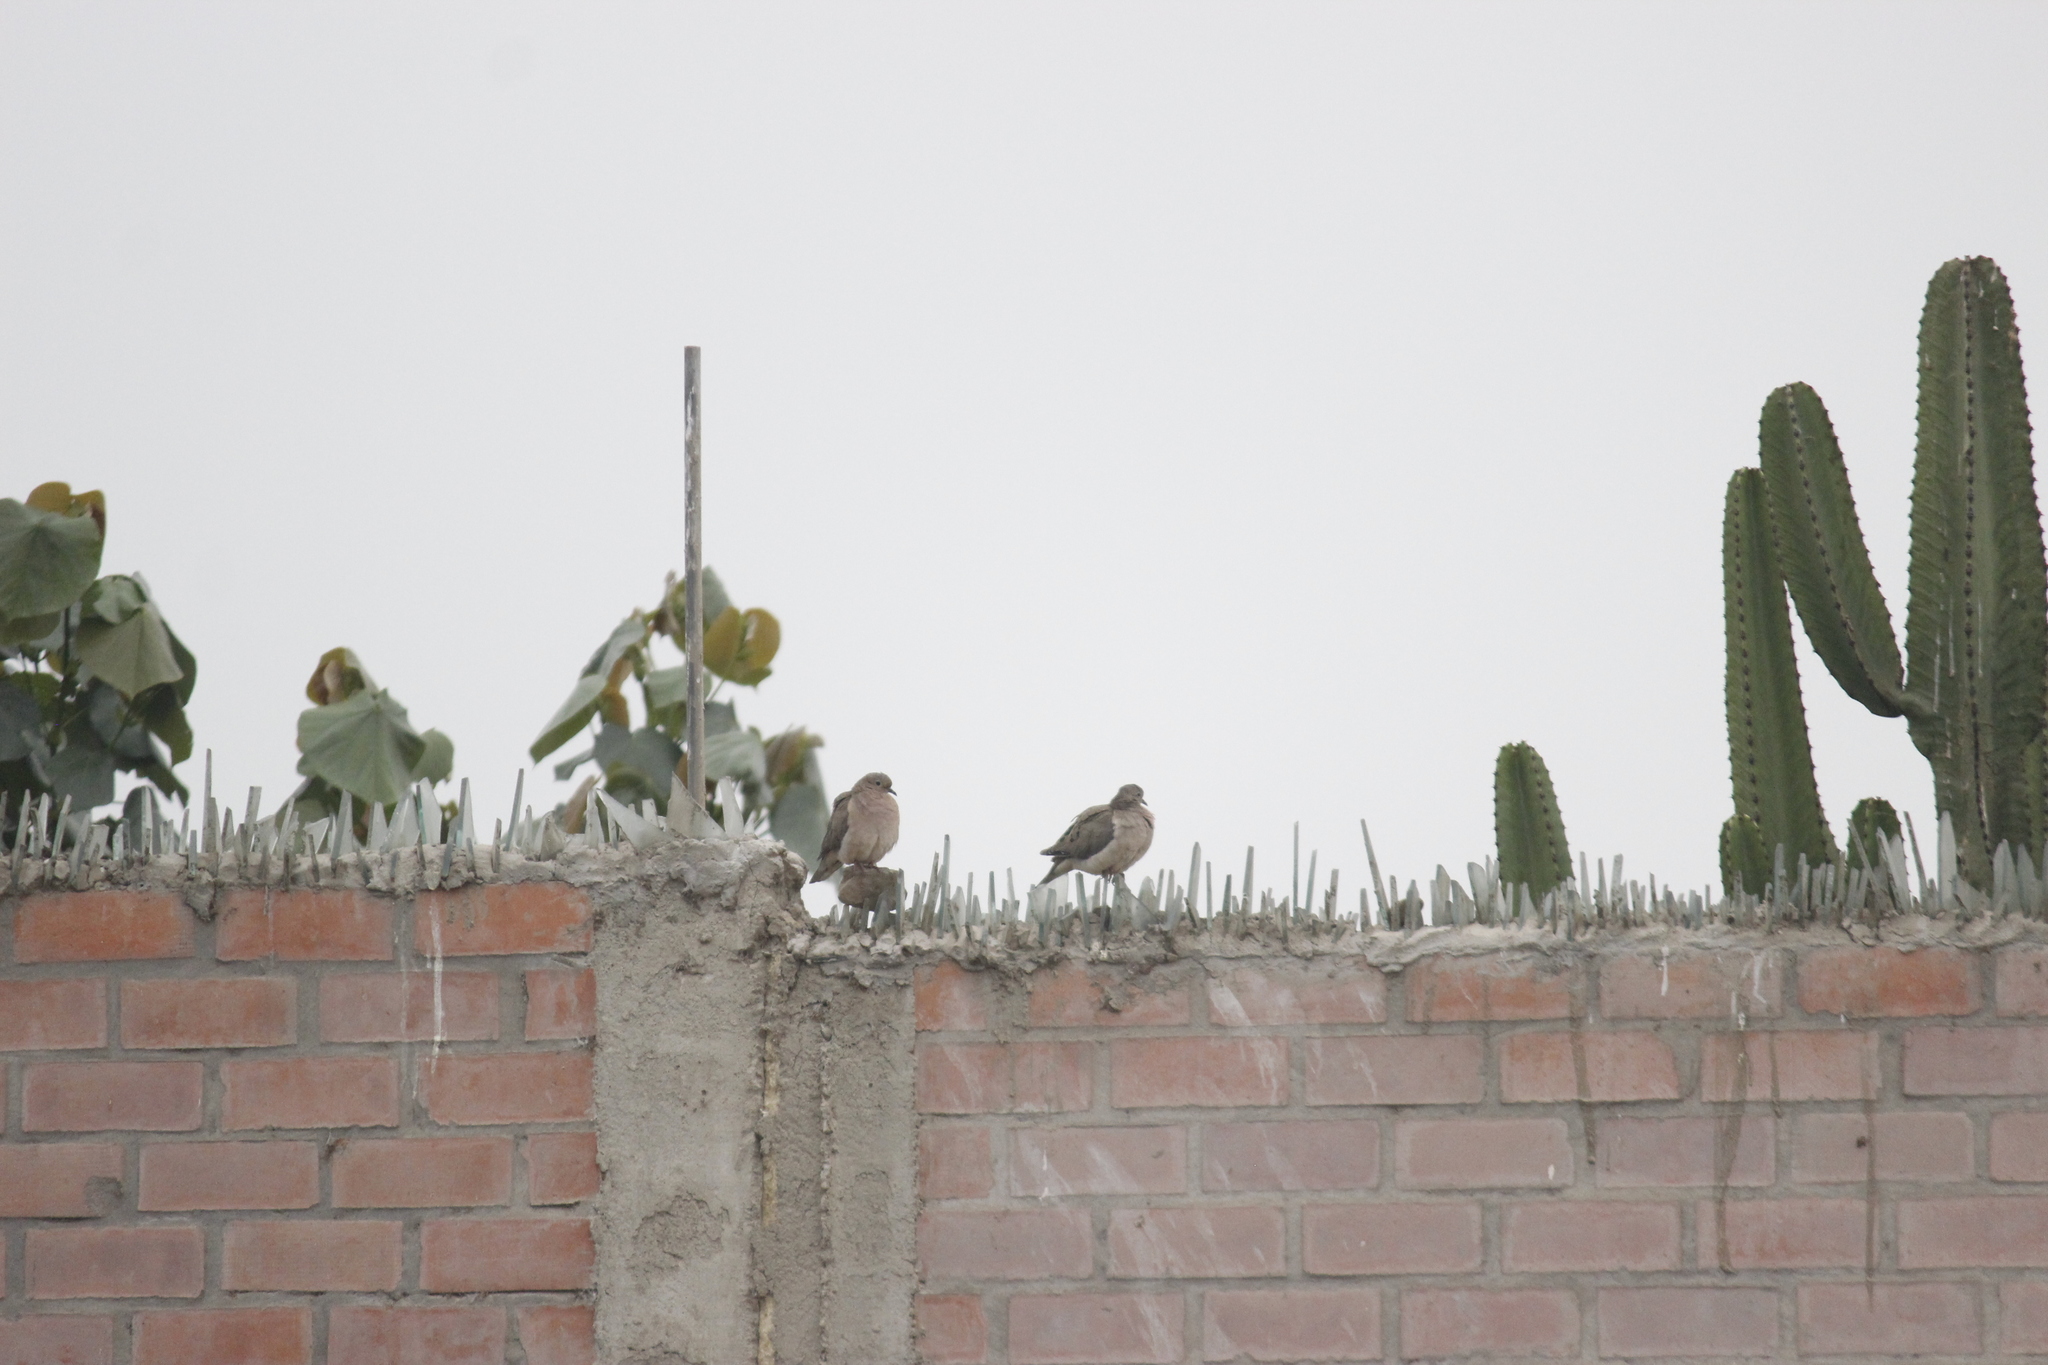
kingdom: Animalia
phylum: Chordata
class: Aves
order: Columbiformes
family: Columbidae
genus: Zenaida
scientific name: Zenaida auriculata
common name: Eared dove
